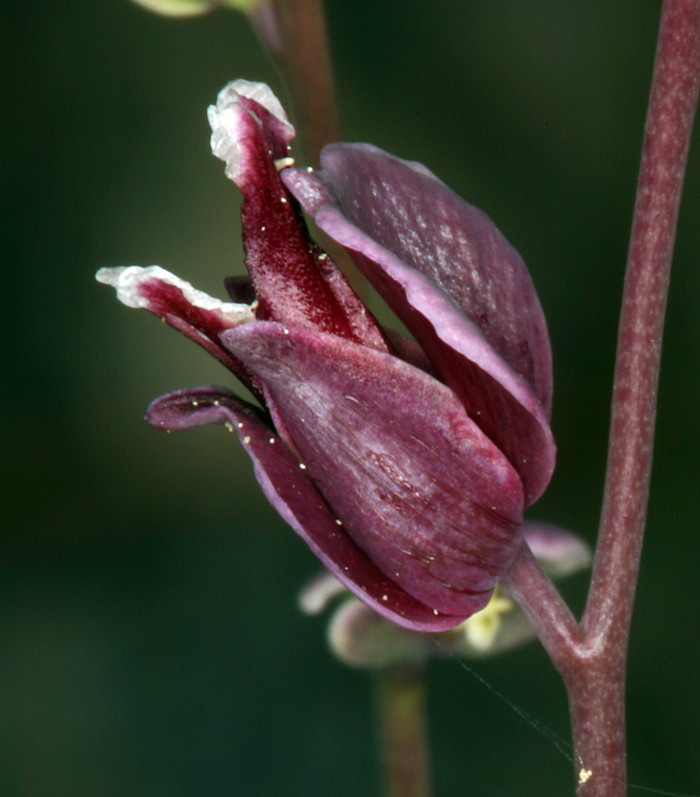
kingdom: Plantae
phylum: Tracheophyta
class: Magnoliopsida
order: Brassicales
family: Brassicaceae
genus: Streptanthus
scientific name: Streptanthus polygaloides
